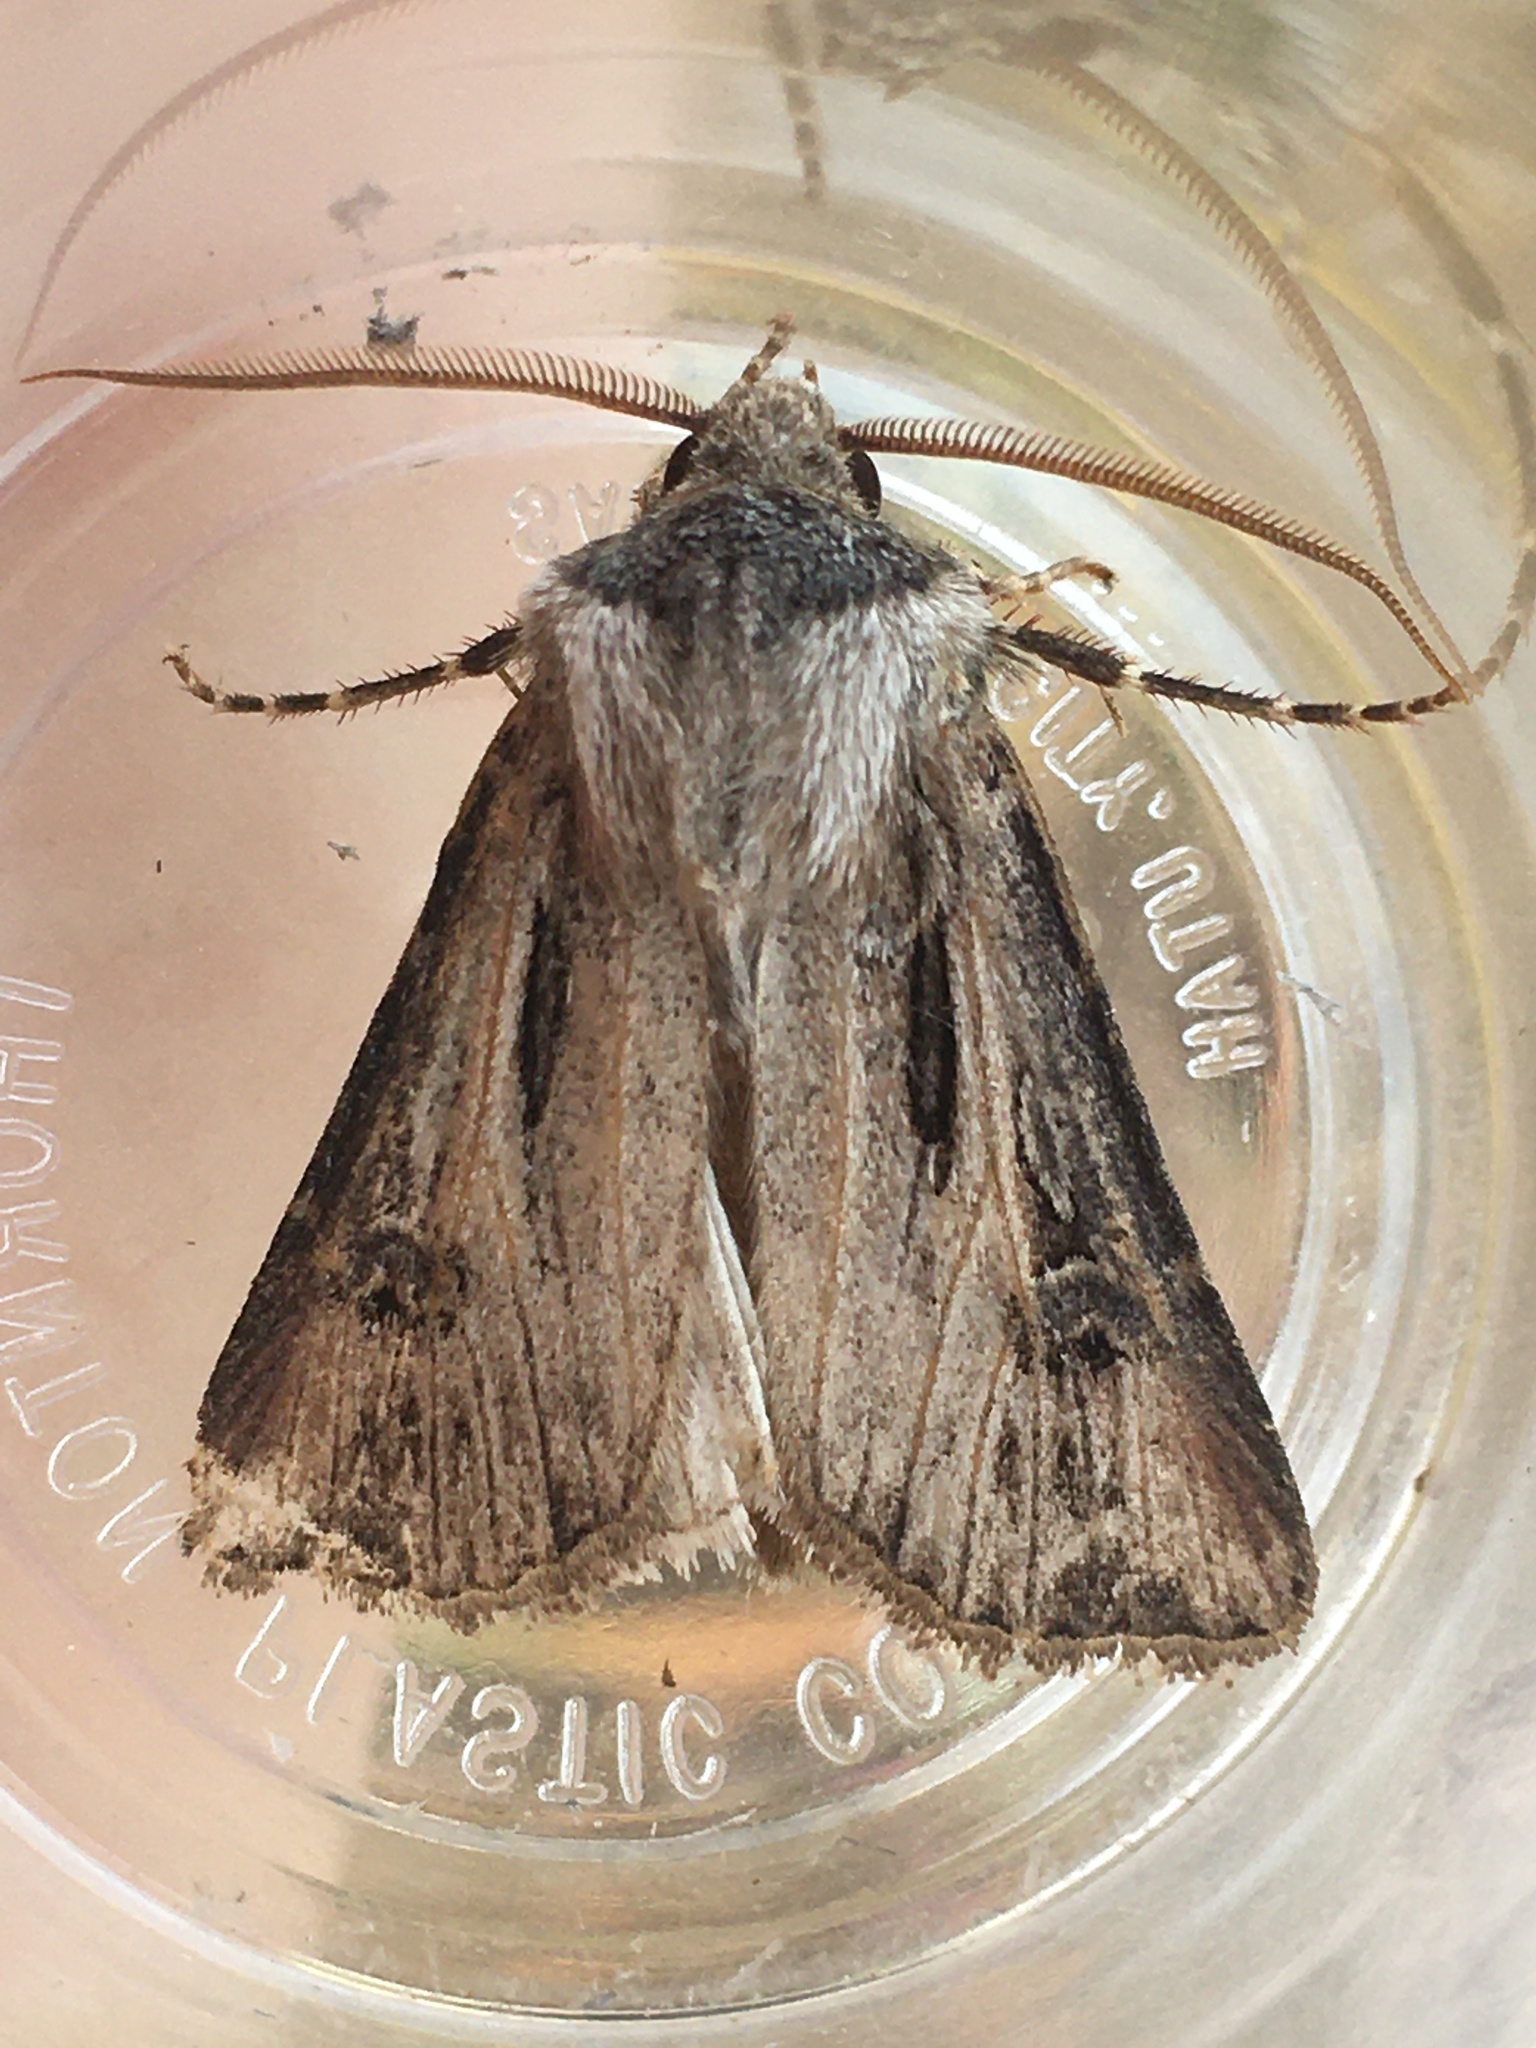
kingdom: Animalia
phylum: Arthropoda
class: Insecta
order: Lepidoptera
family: Noctuidae
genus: Agrotis
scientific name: Agrotis venerabilis
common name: Venerable dart
